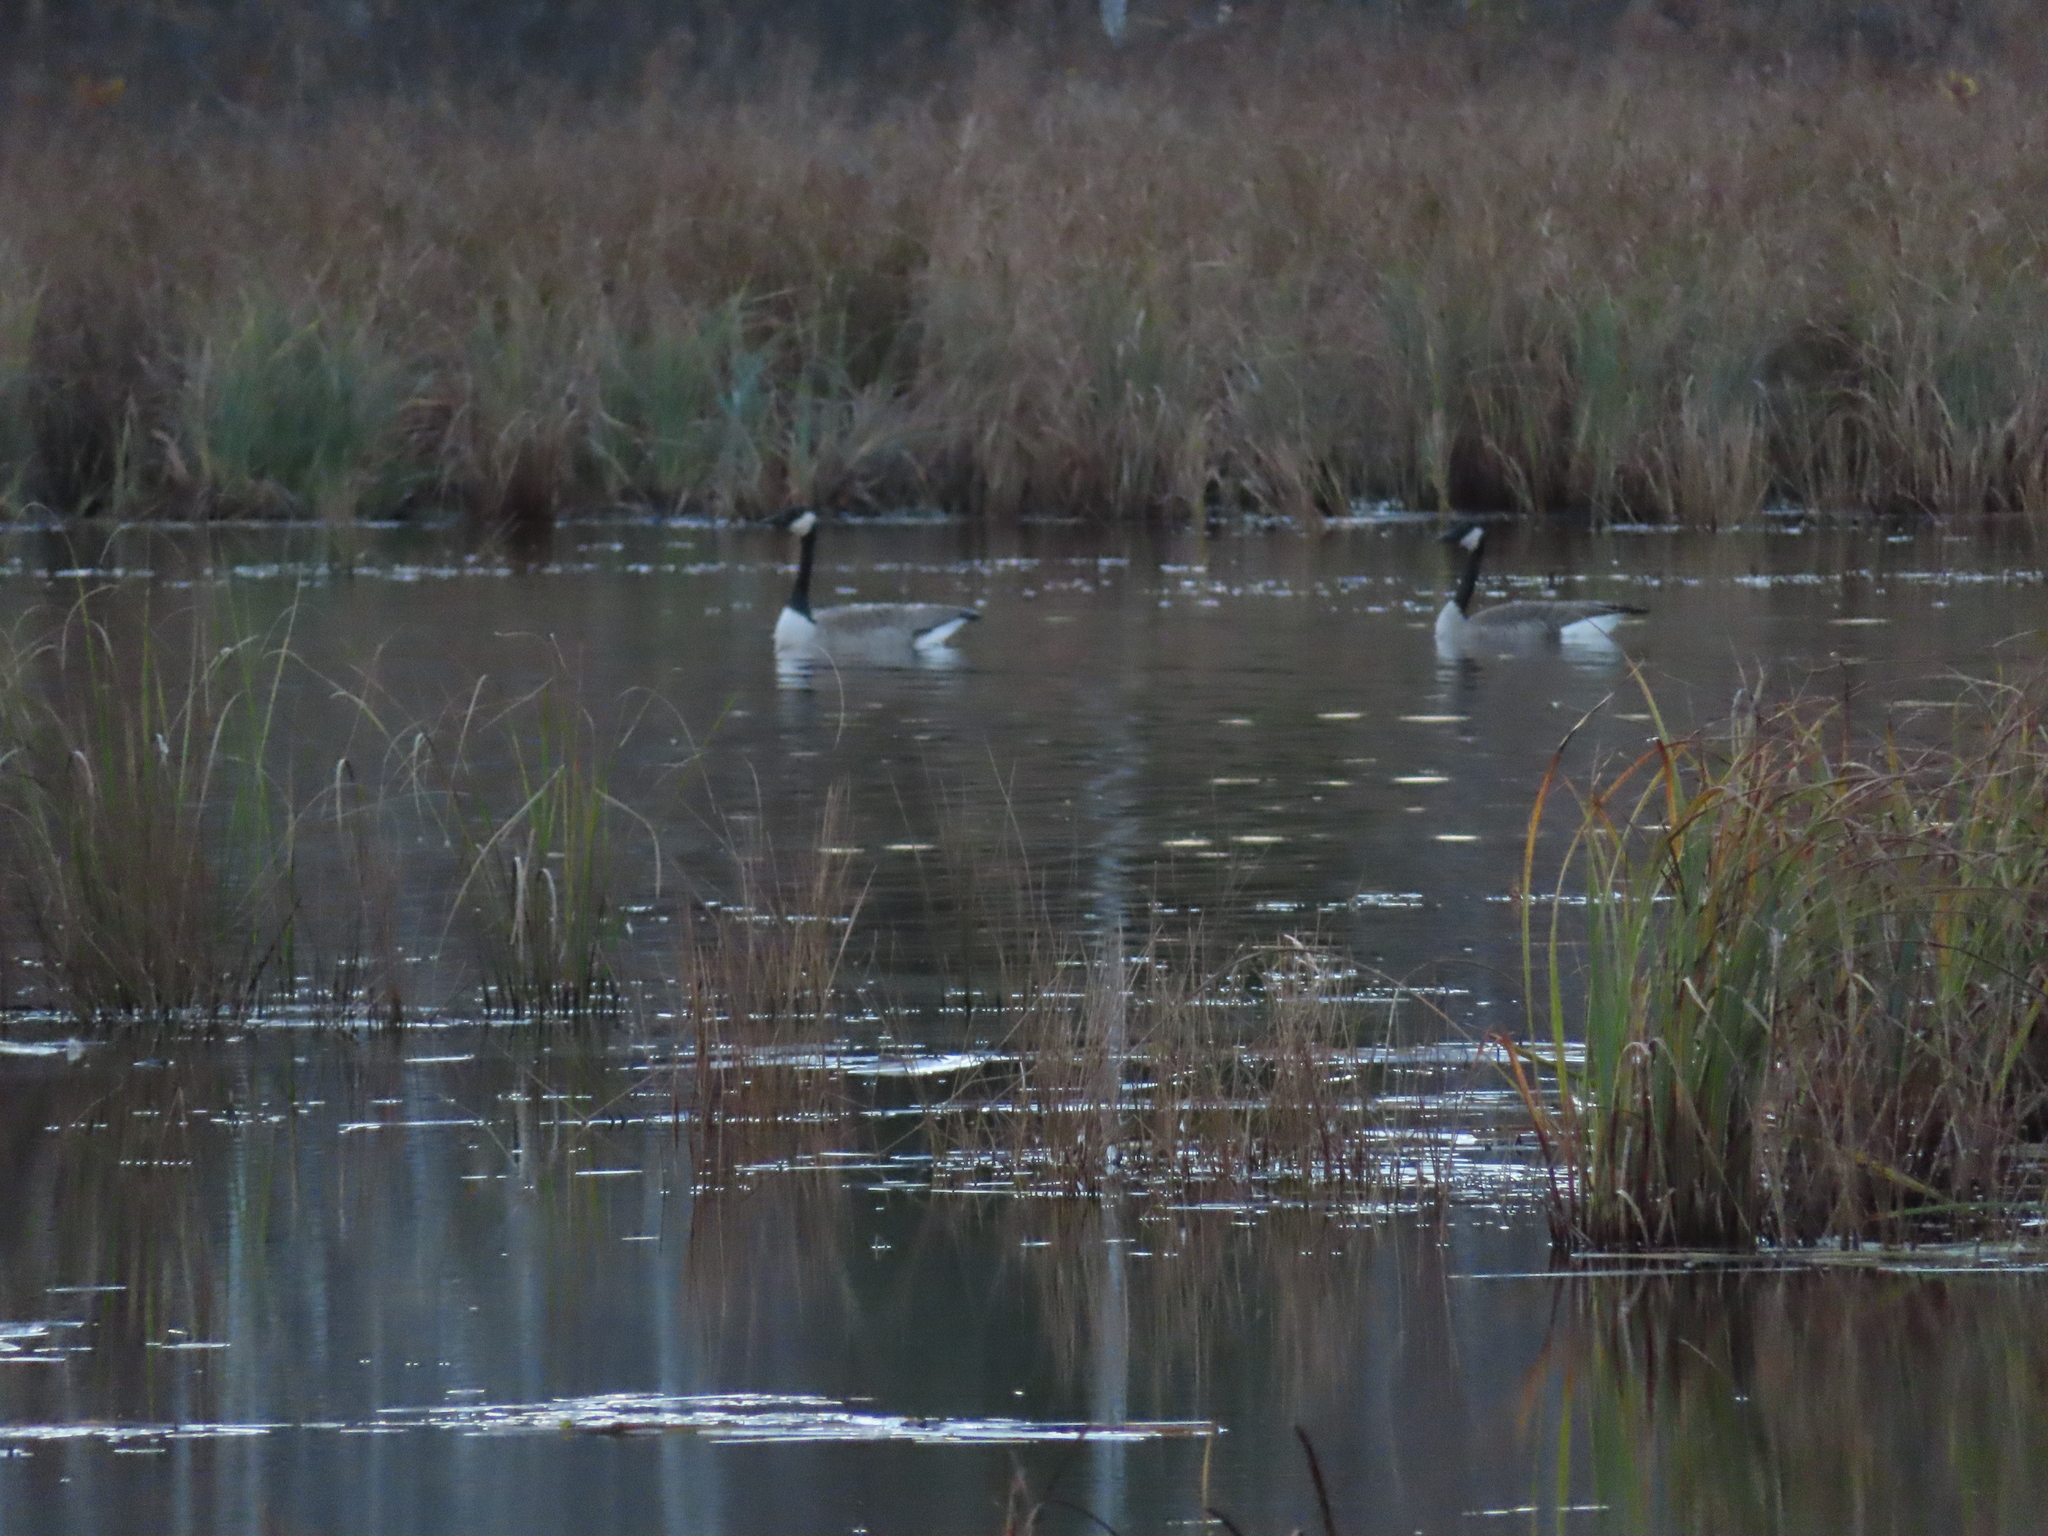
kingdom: Animalia
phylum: Chordata
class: Aves
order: Anseriformes
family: Anatidae
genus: Branta
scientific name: Branta canadensis
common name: Canada goose
